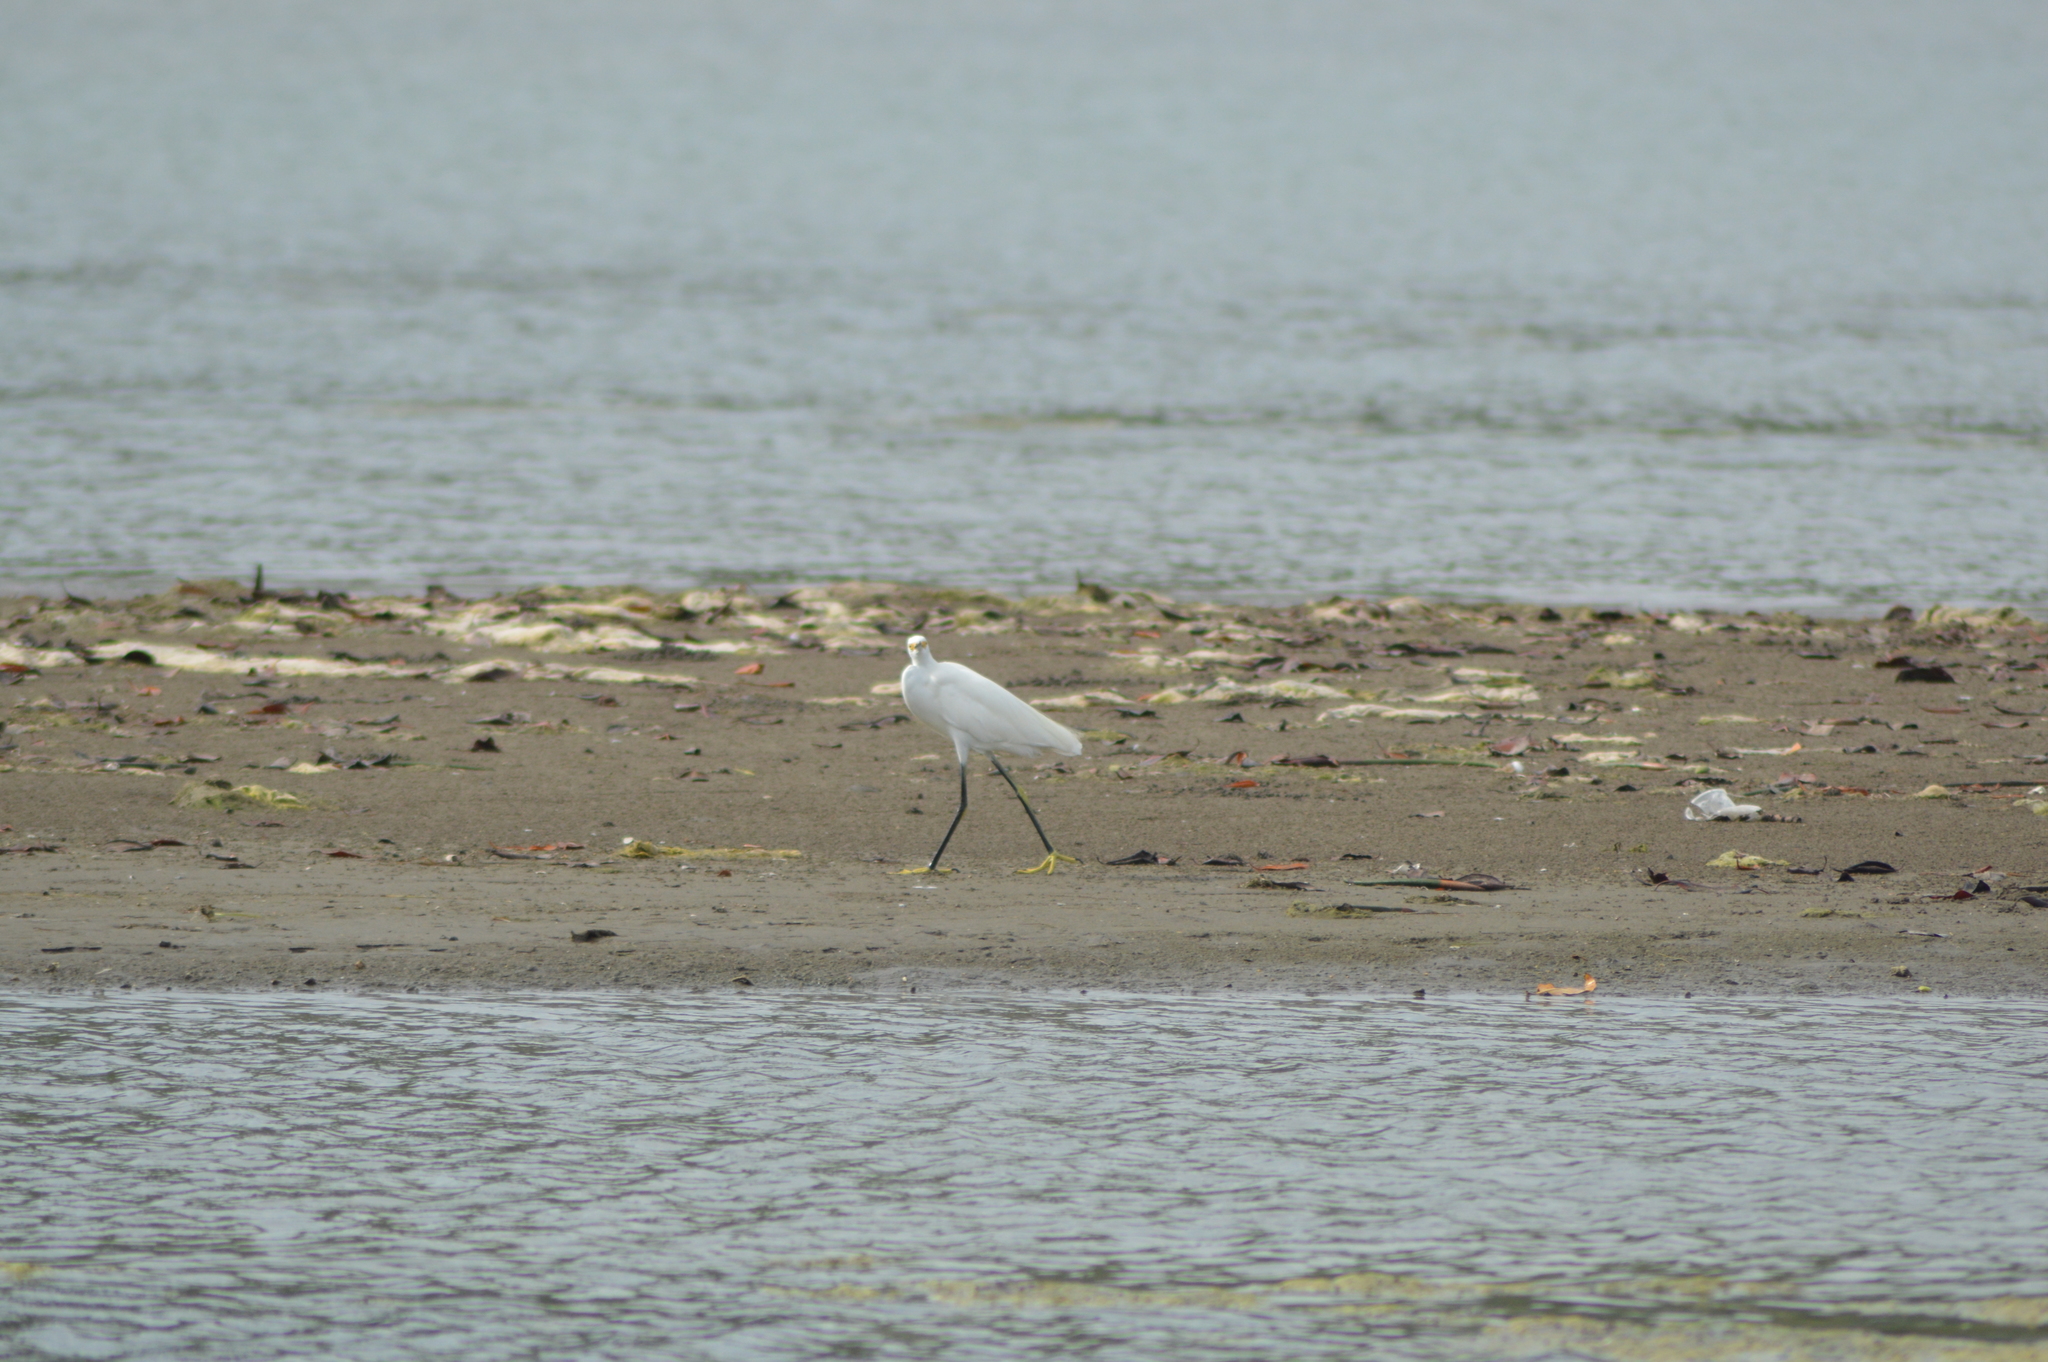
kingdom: Animalia
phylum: Chordata
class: Aves
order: Pelecaniformes
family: Ardeidae
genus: Egretta
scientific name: Egretta thula
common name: Snowy egret
